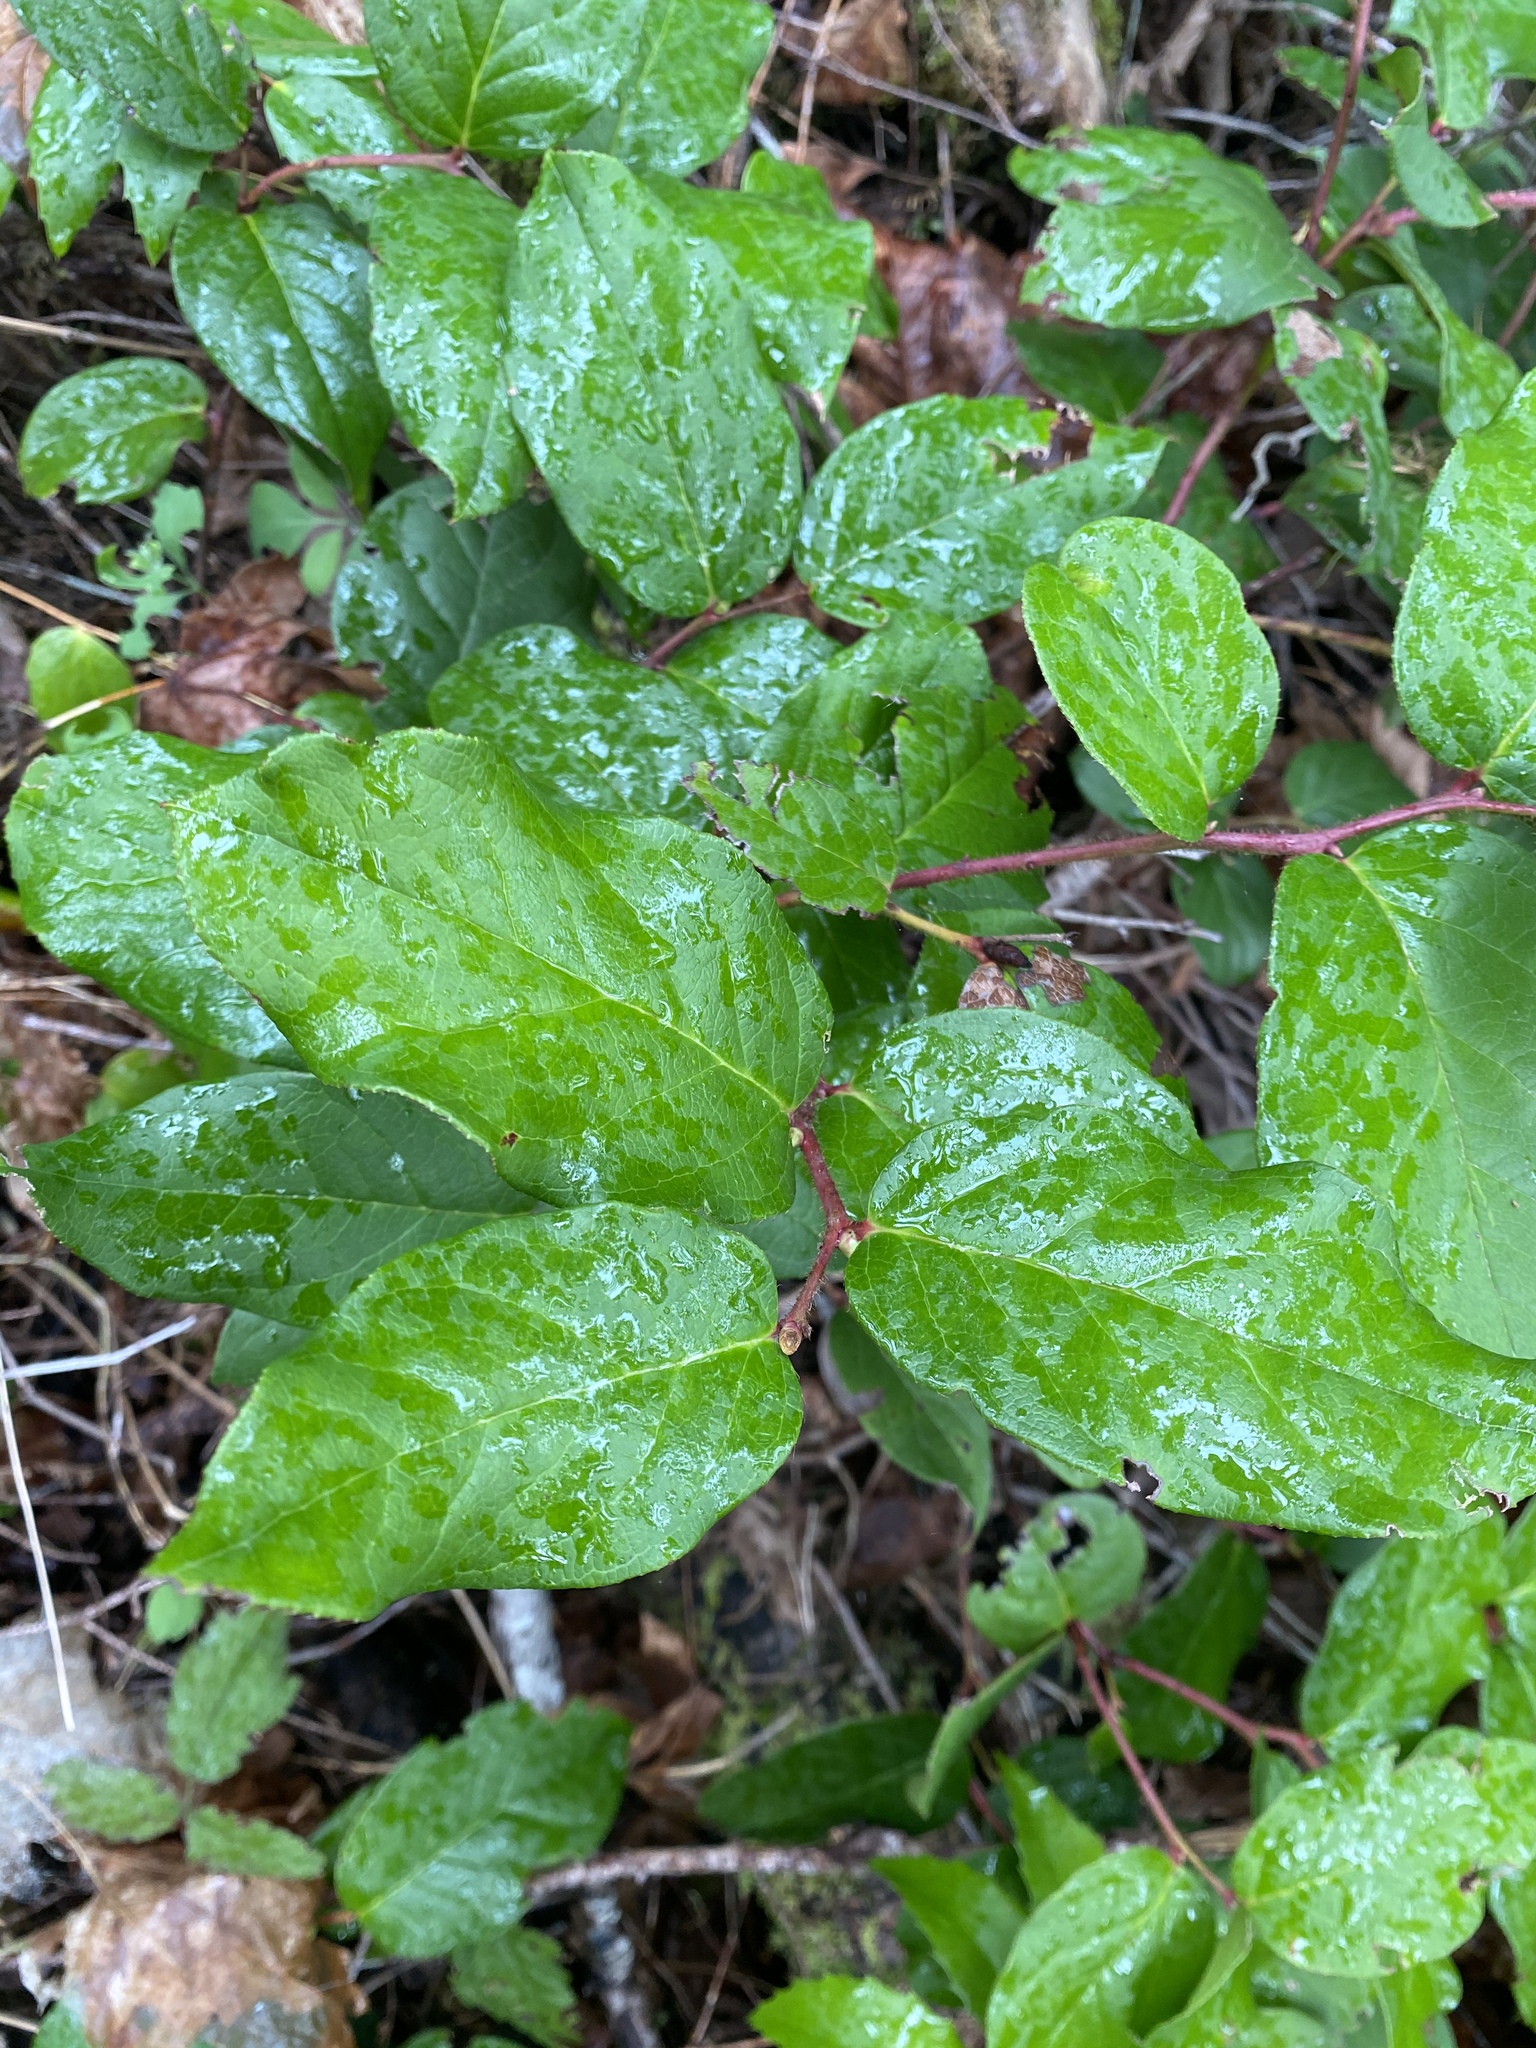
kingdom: Plantae
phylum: Tracheophyta
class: Magnoliopsida
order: Ericales
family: Ericaceae
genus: Gaultheria
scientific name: Gaultheria shallon
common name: Shallon
